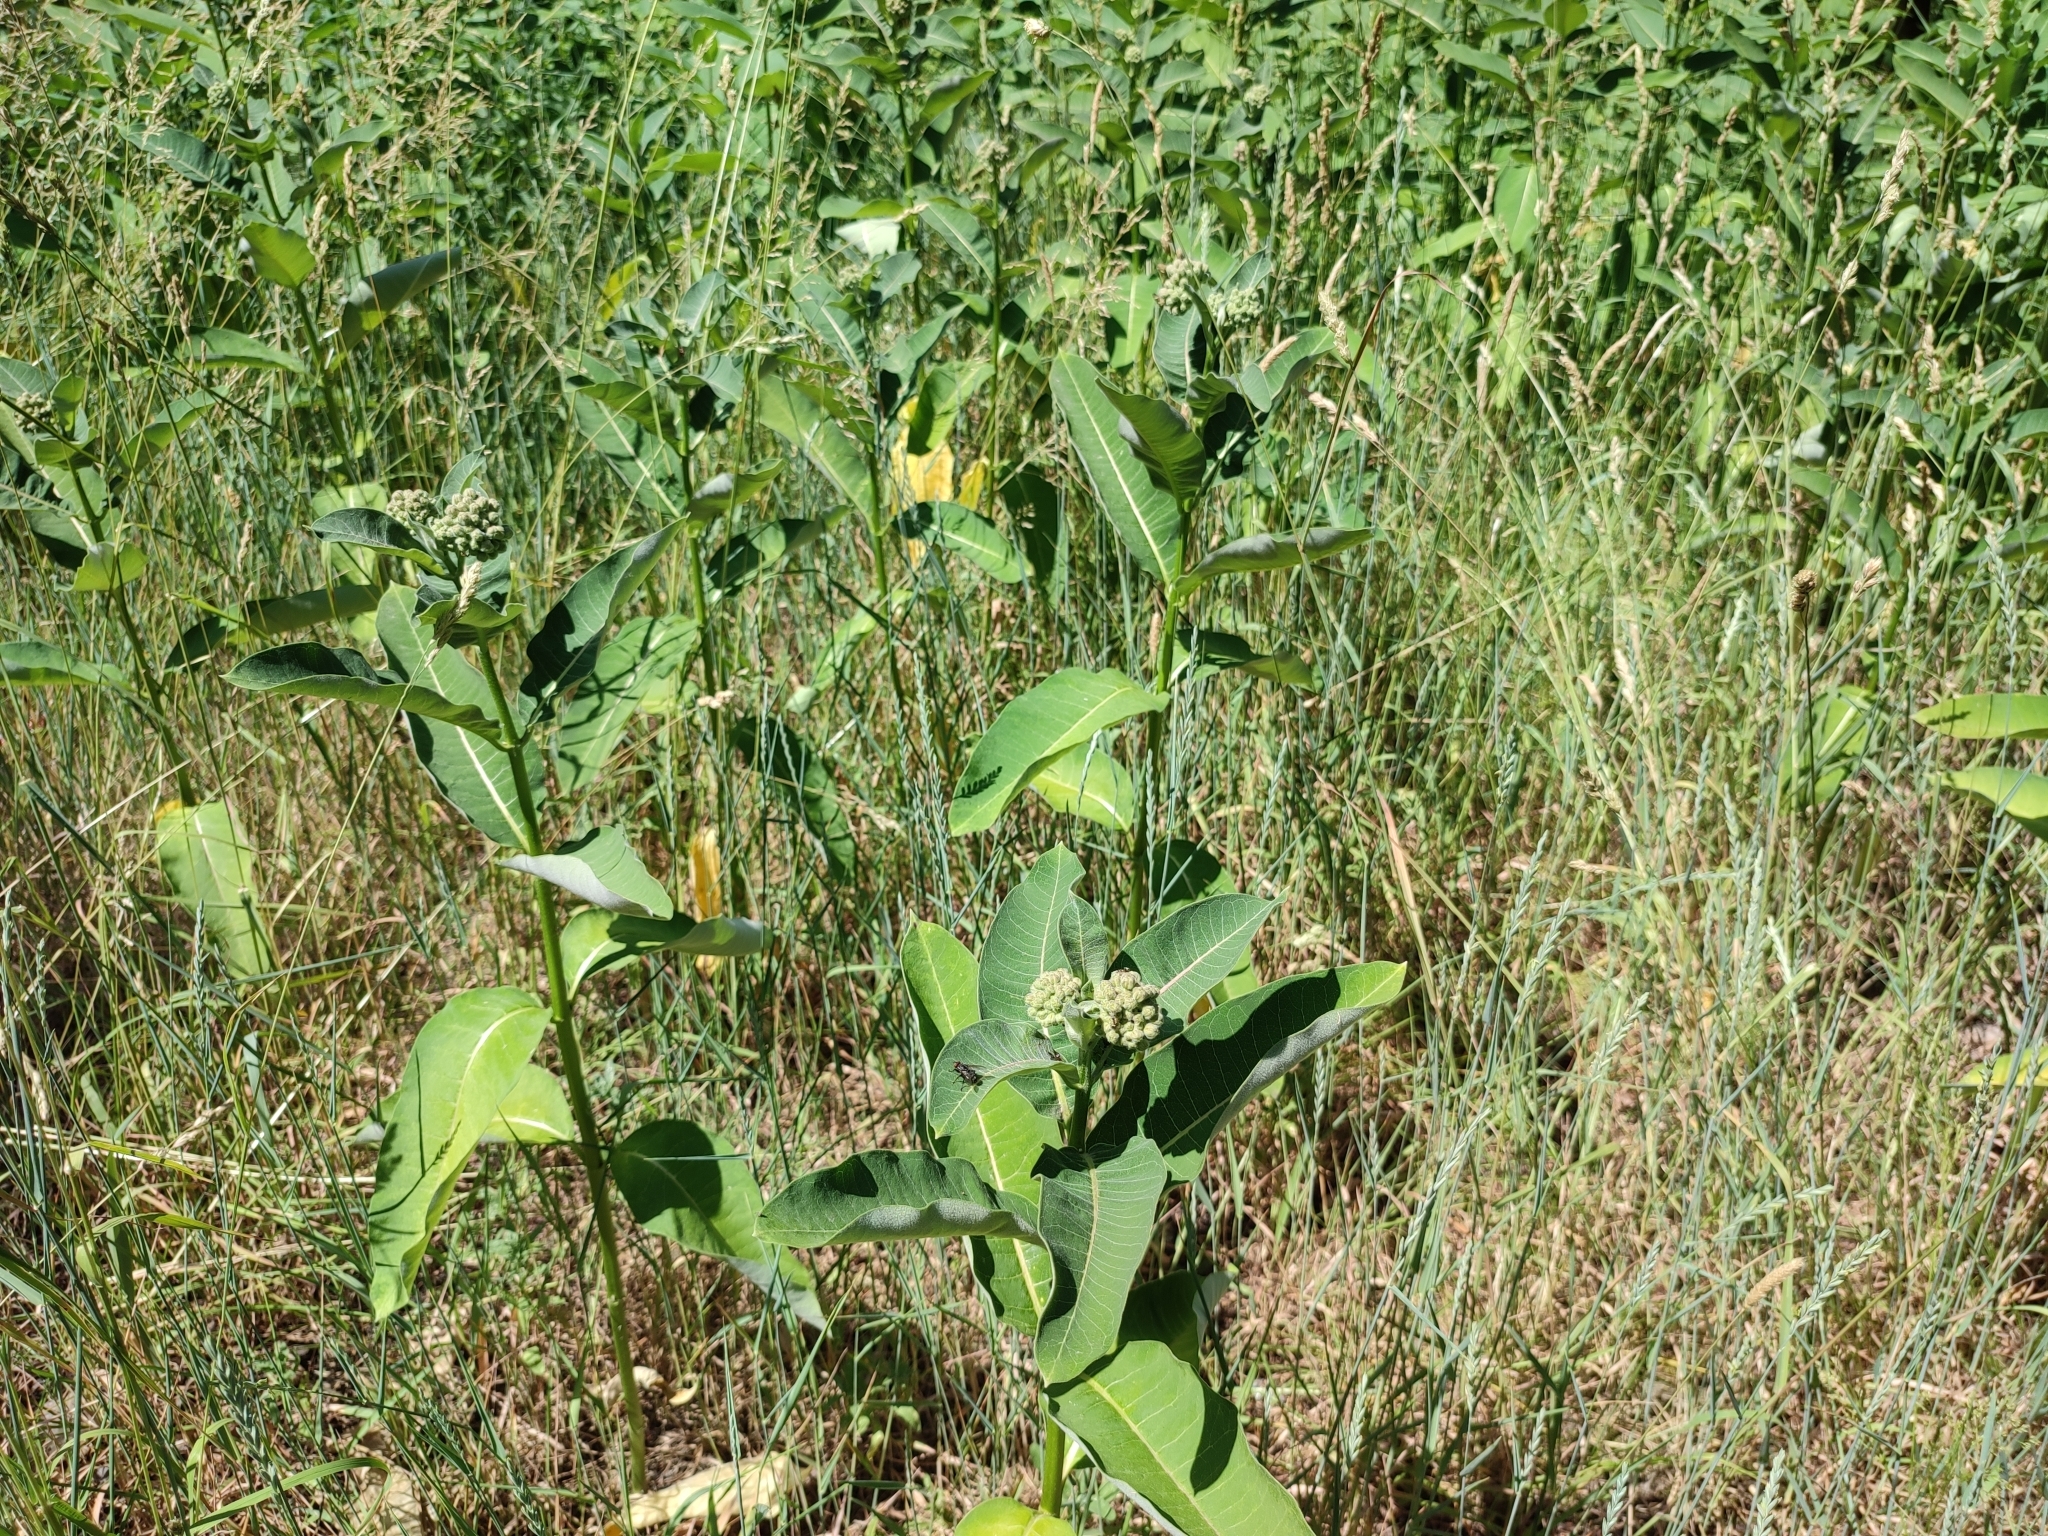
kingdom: Plantae
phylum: Tracheophyta
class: Magnoliopsida
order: Gentianales
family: Apocynaceae
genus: Asclepias
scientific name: Asclepias syriaca
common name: Common milkweed
